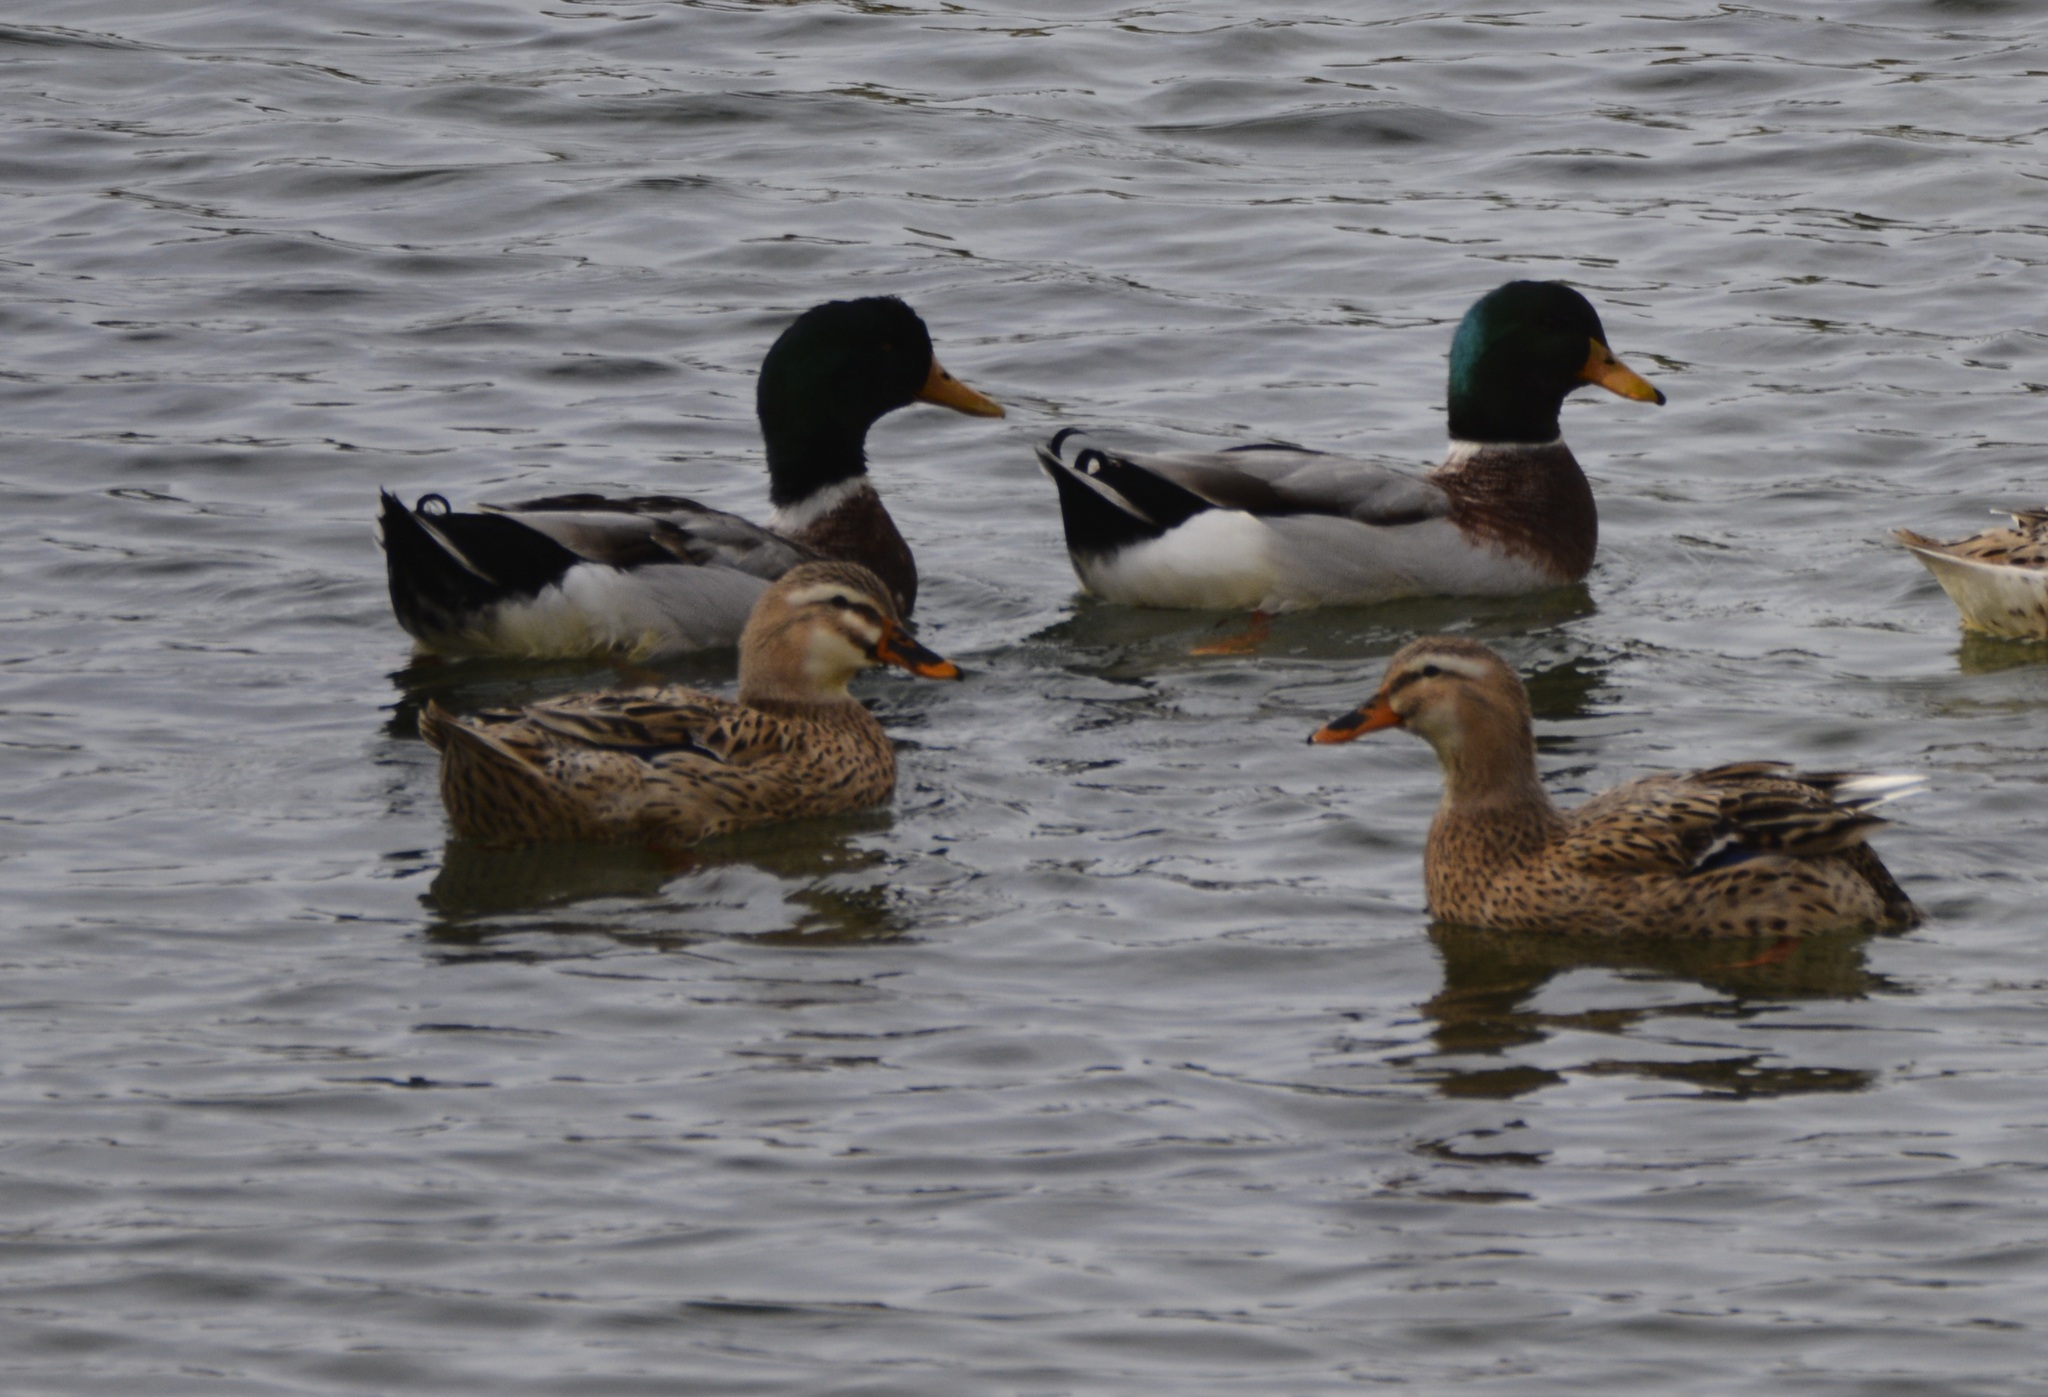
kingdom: Animalia
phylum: Chordata
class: Aves
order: Anseriformes
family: Anatidae
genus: Anas
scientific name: Anas platyrhynchos
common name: Mallard
